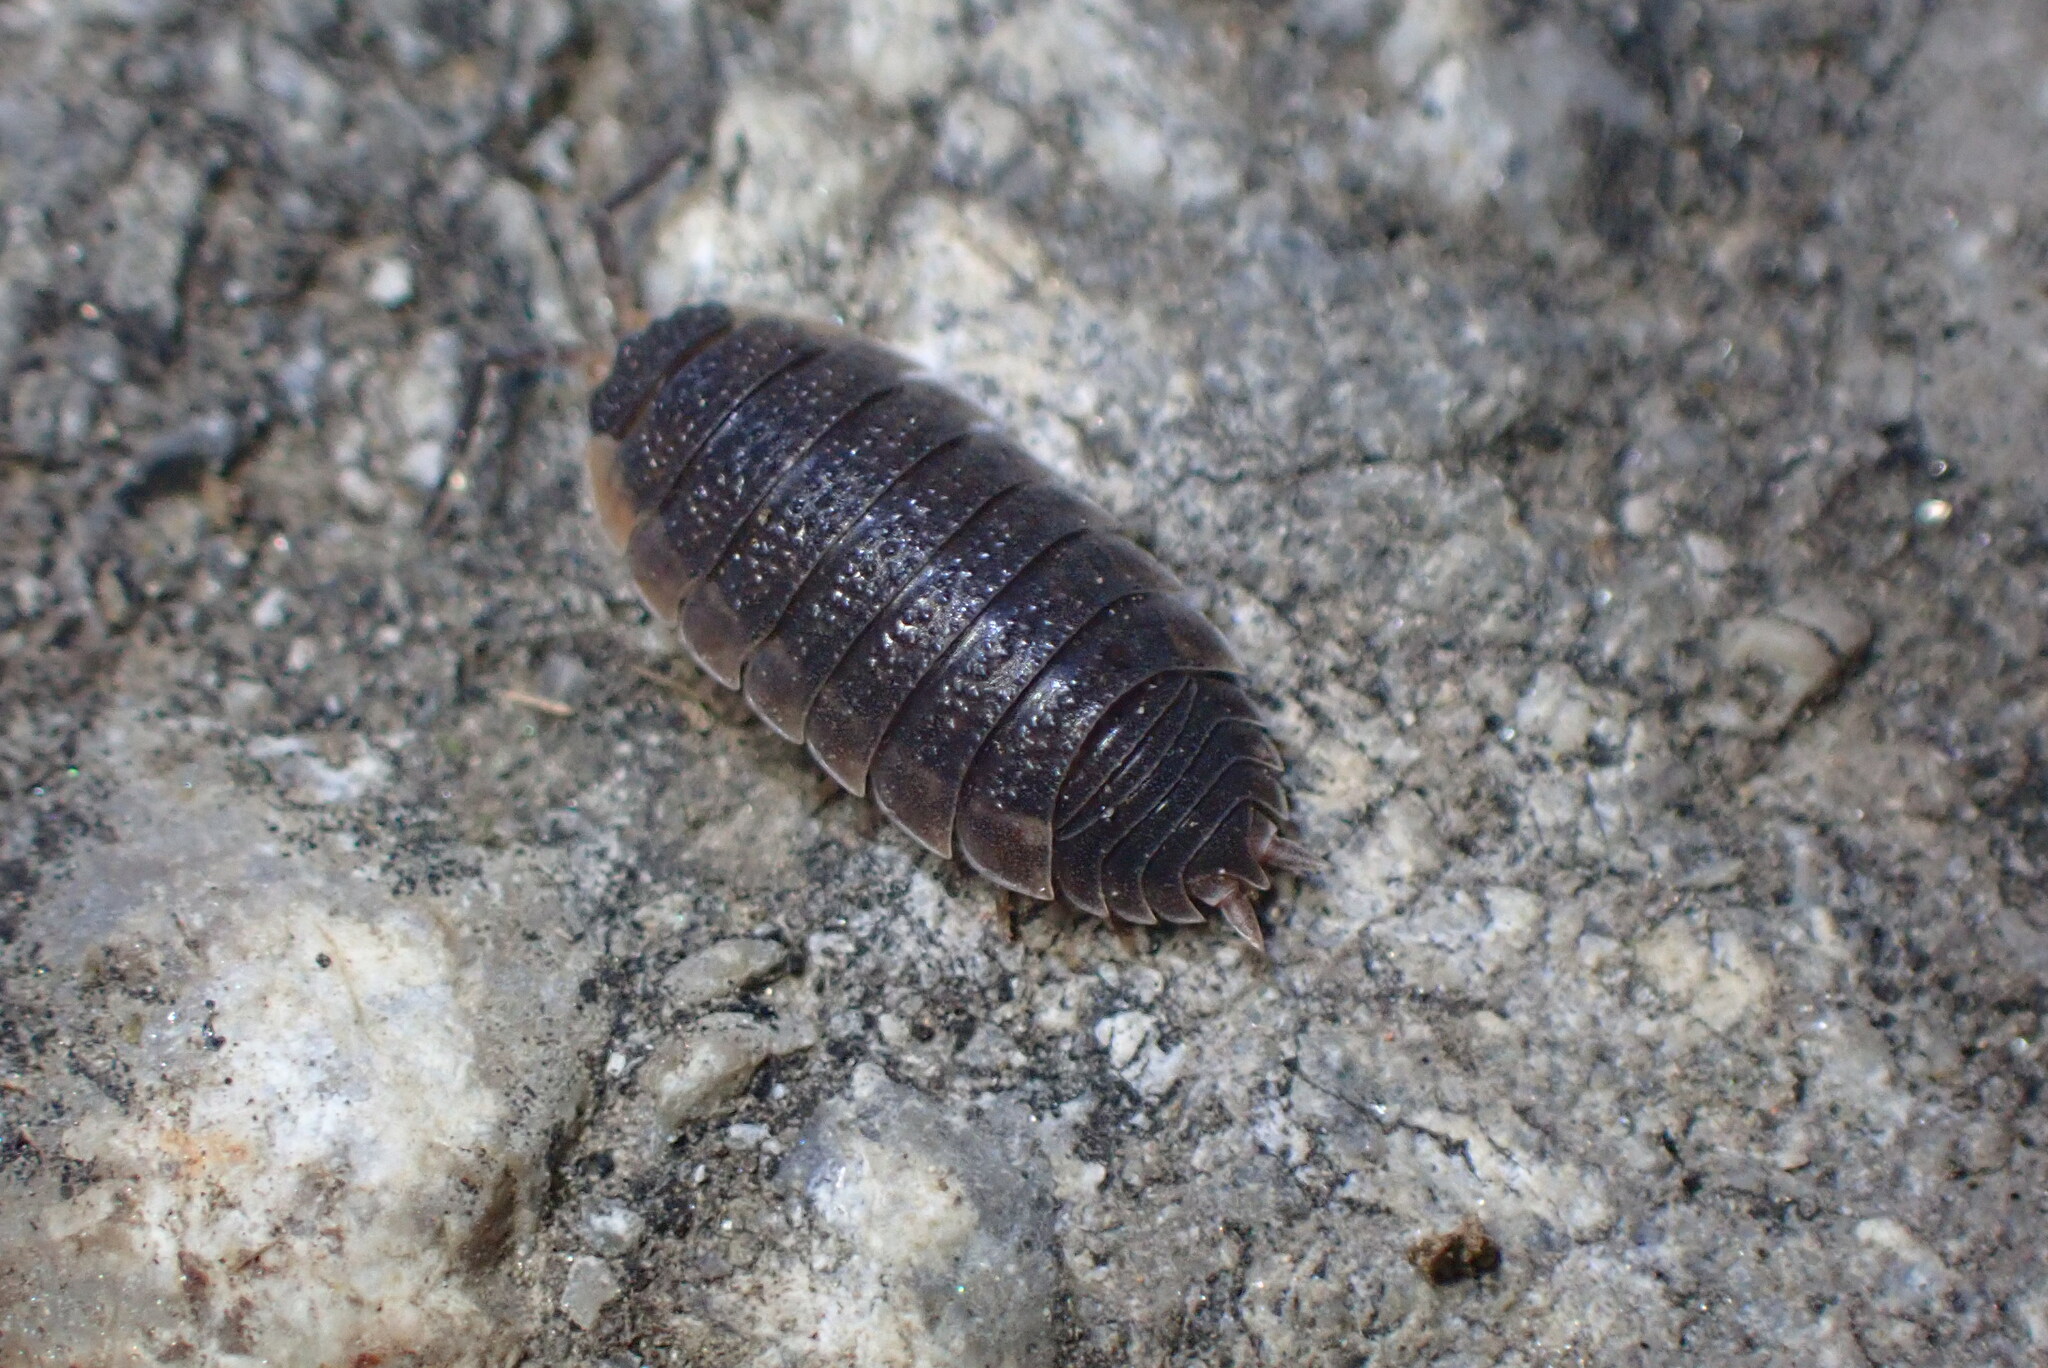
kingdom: Animalia
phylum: Arthropoda
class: Malacostraca
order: Isopoda
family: Porcellionidae
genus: Porcellio
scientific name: Porcellio scaber
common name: Common rough woodlouse
